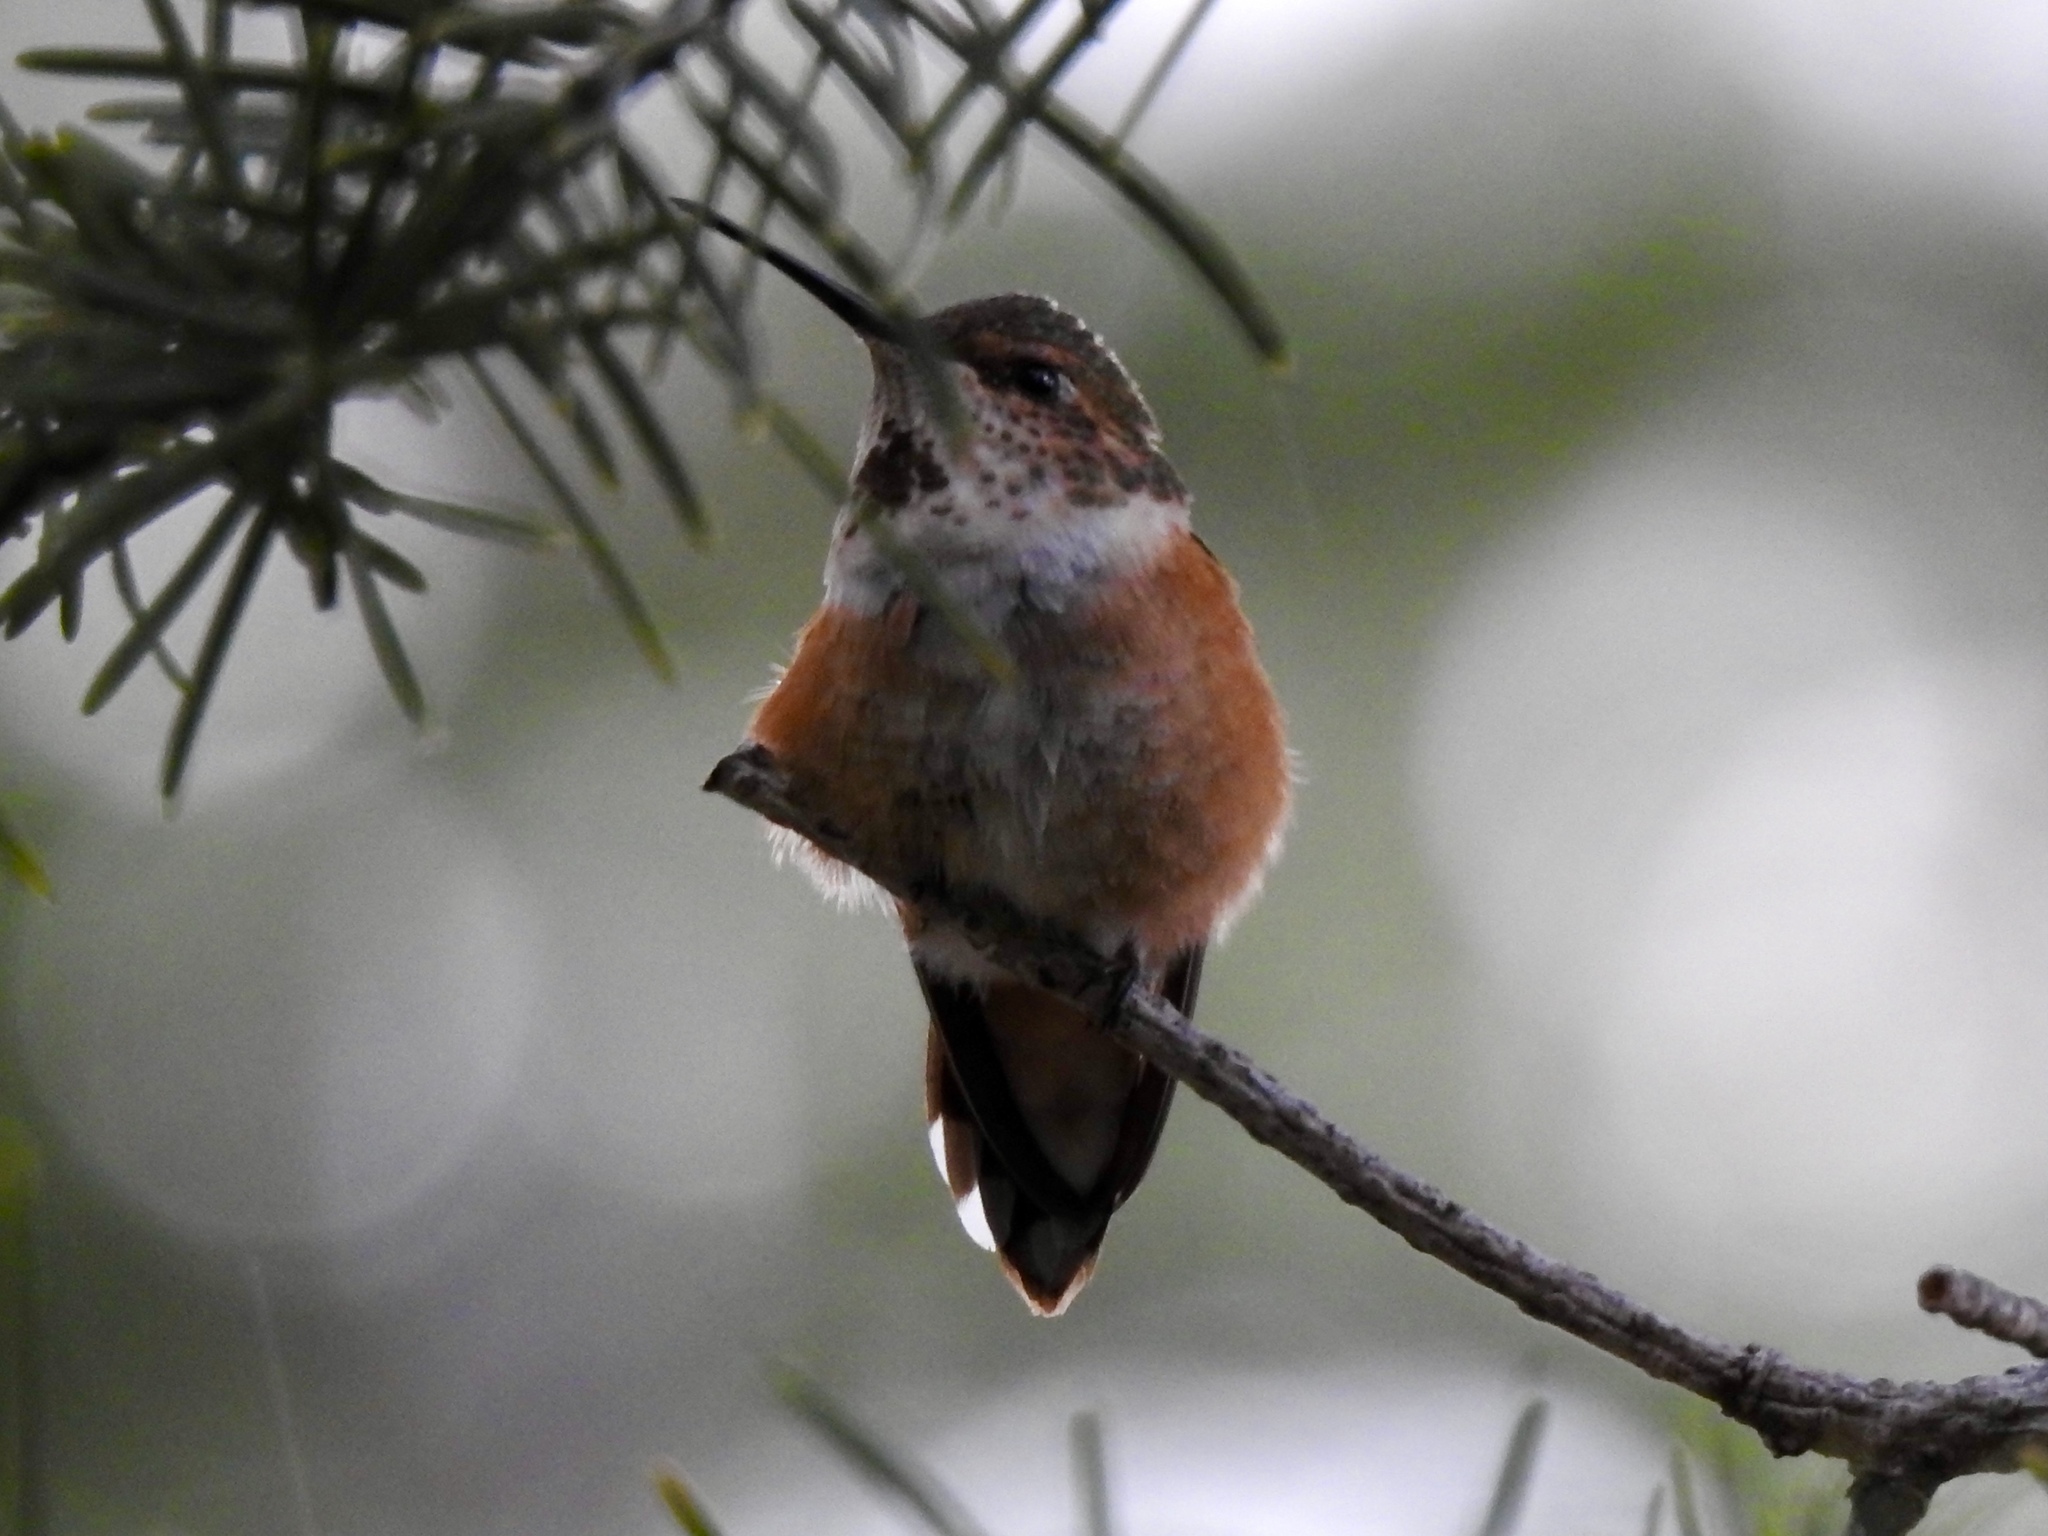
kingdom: Animalia
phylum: Chordata
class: Aves
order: Apodiformes
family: Trochilidae
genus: Selasphorus
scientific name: Selasphorus rufus
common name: Rufous hummingbird
